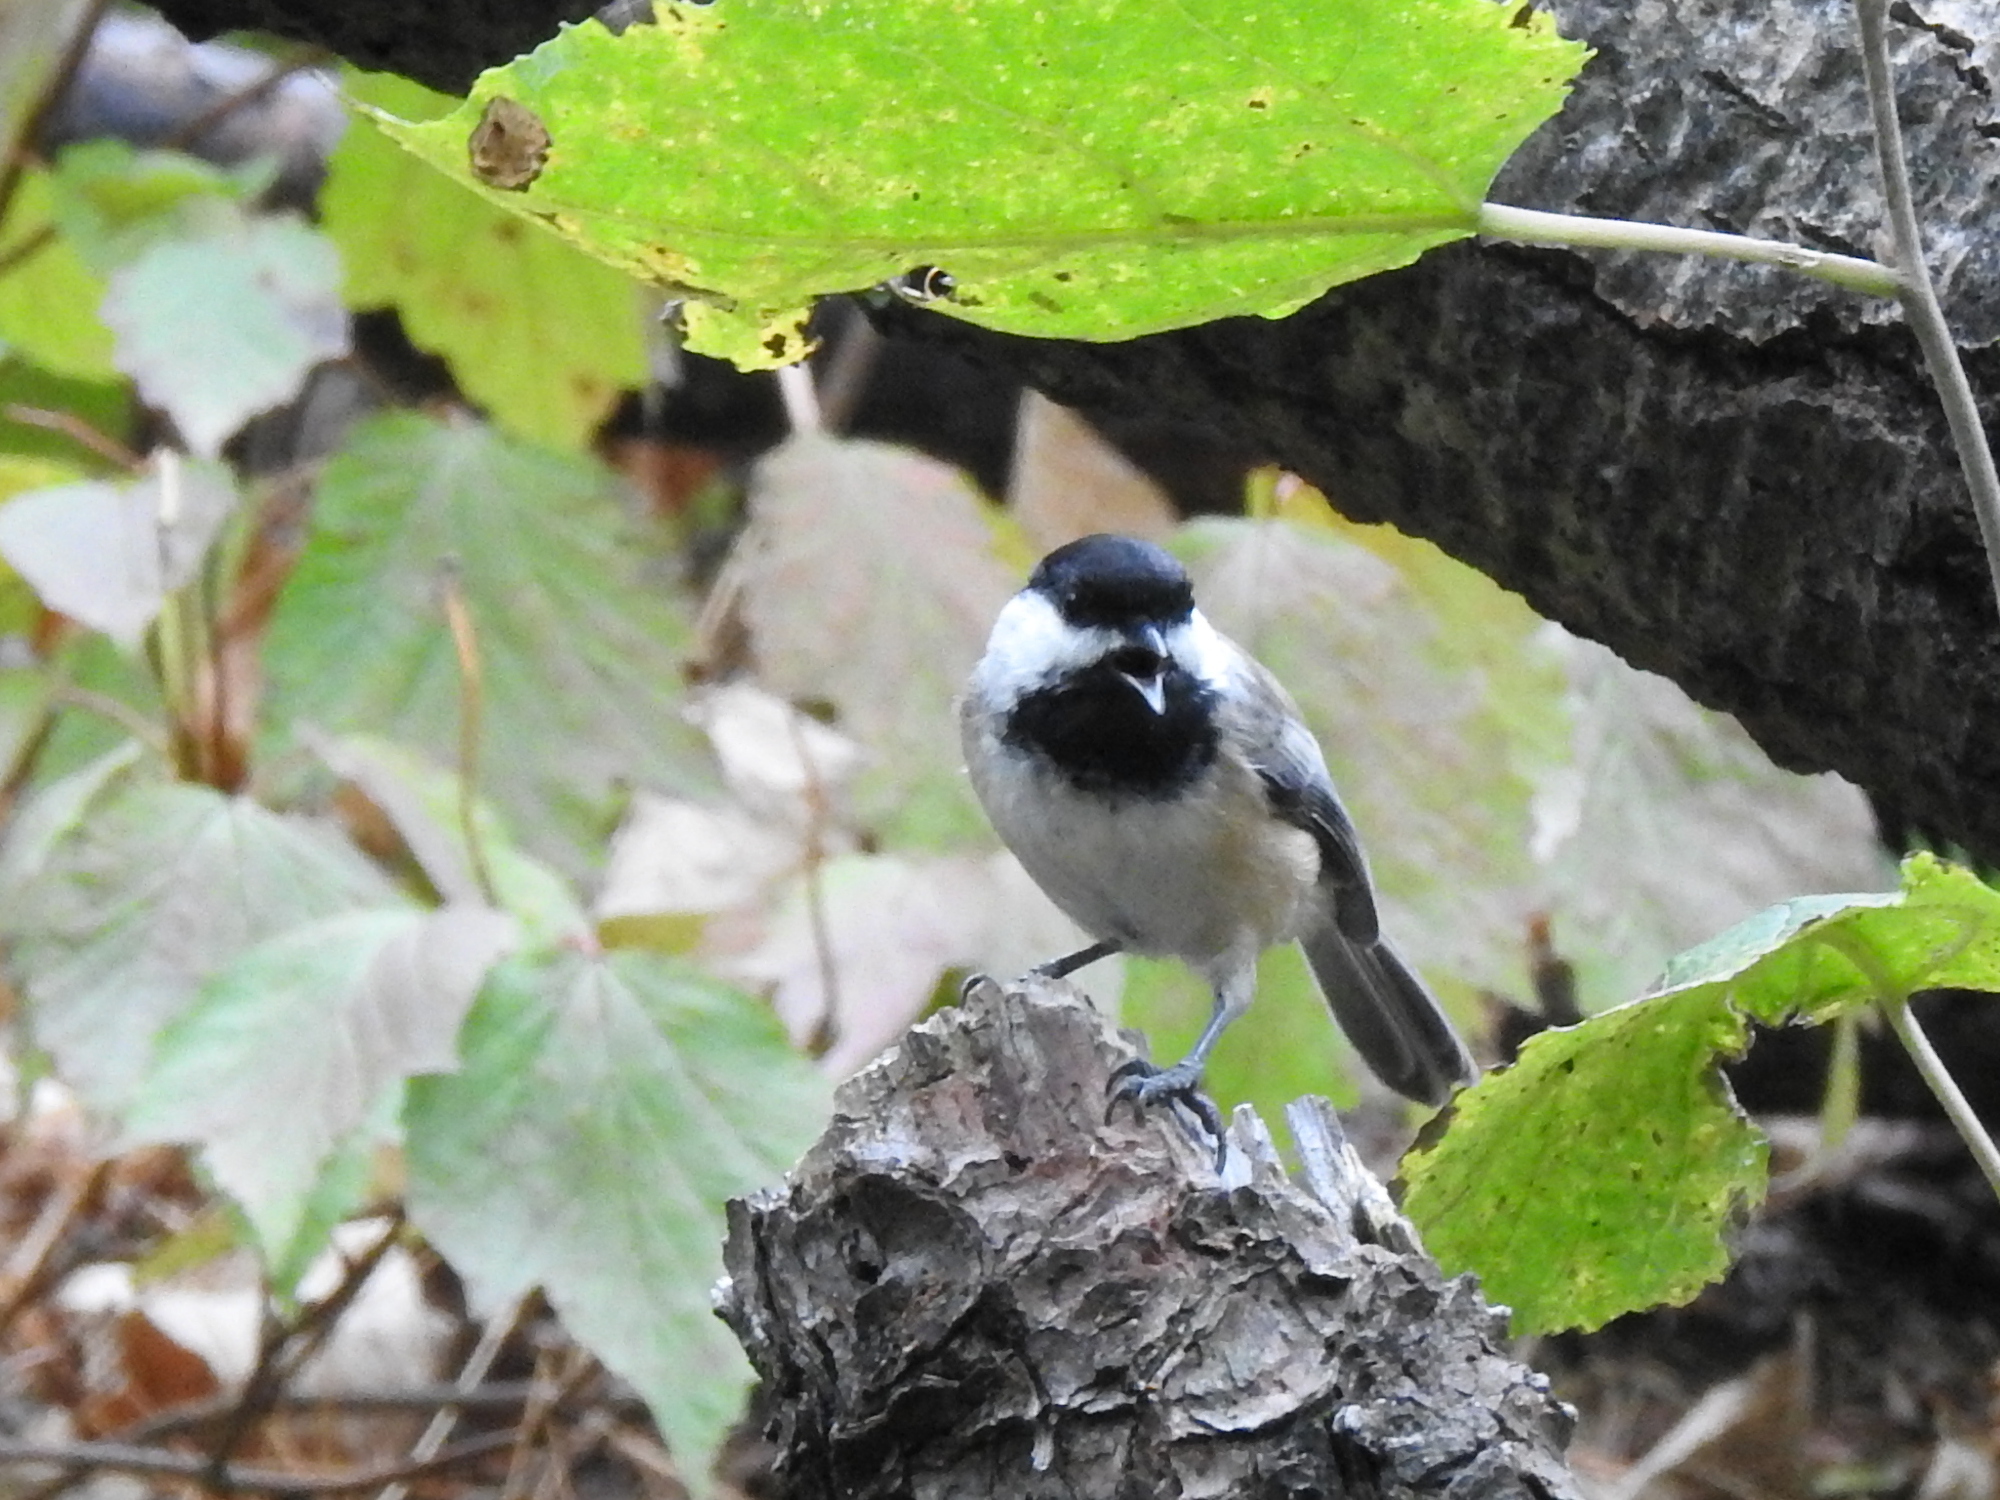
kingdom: Animalia
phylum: Chordata
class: Aves
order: Passeriformes
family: Paridae
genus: Poecile
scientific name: Poecile atricapillus
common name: Black-capped chickadee
